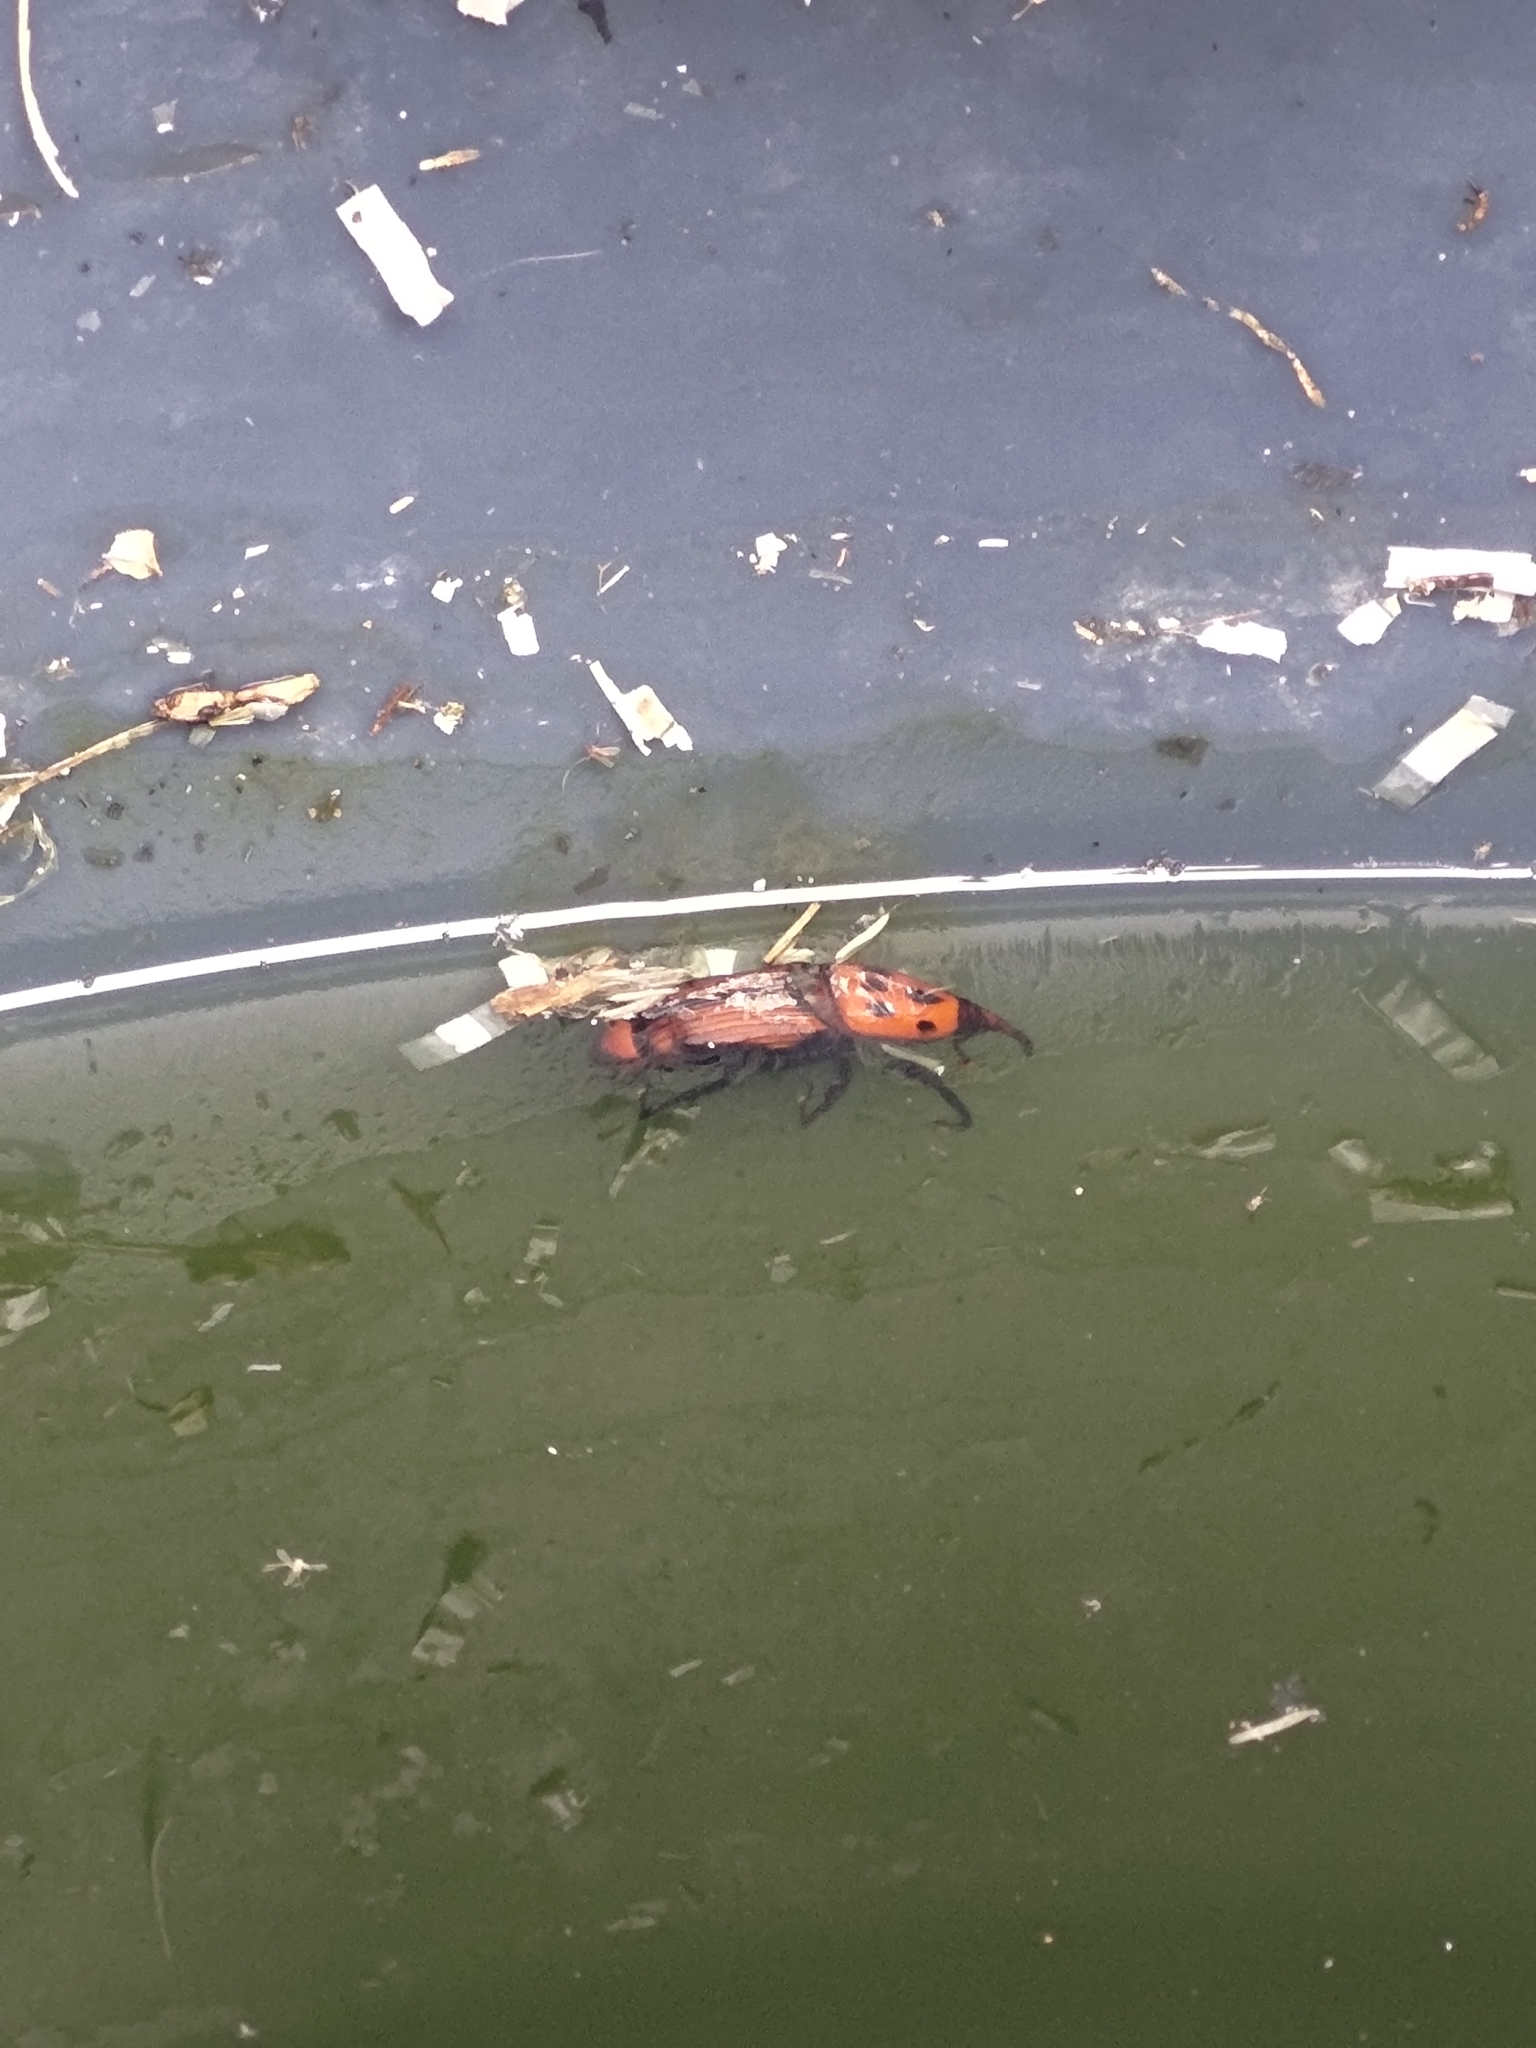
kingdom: Animalia
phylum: Arthropoda
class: Insecta
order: Coleoptera
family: Dryophthoridae
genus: Rhynchophorus
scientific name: Rhynchophorus ferrugineus
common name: Red palm weevil
